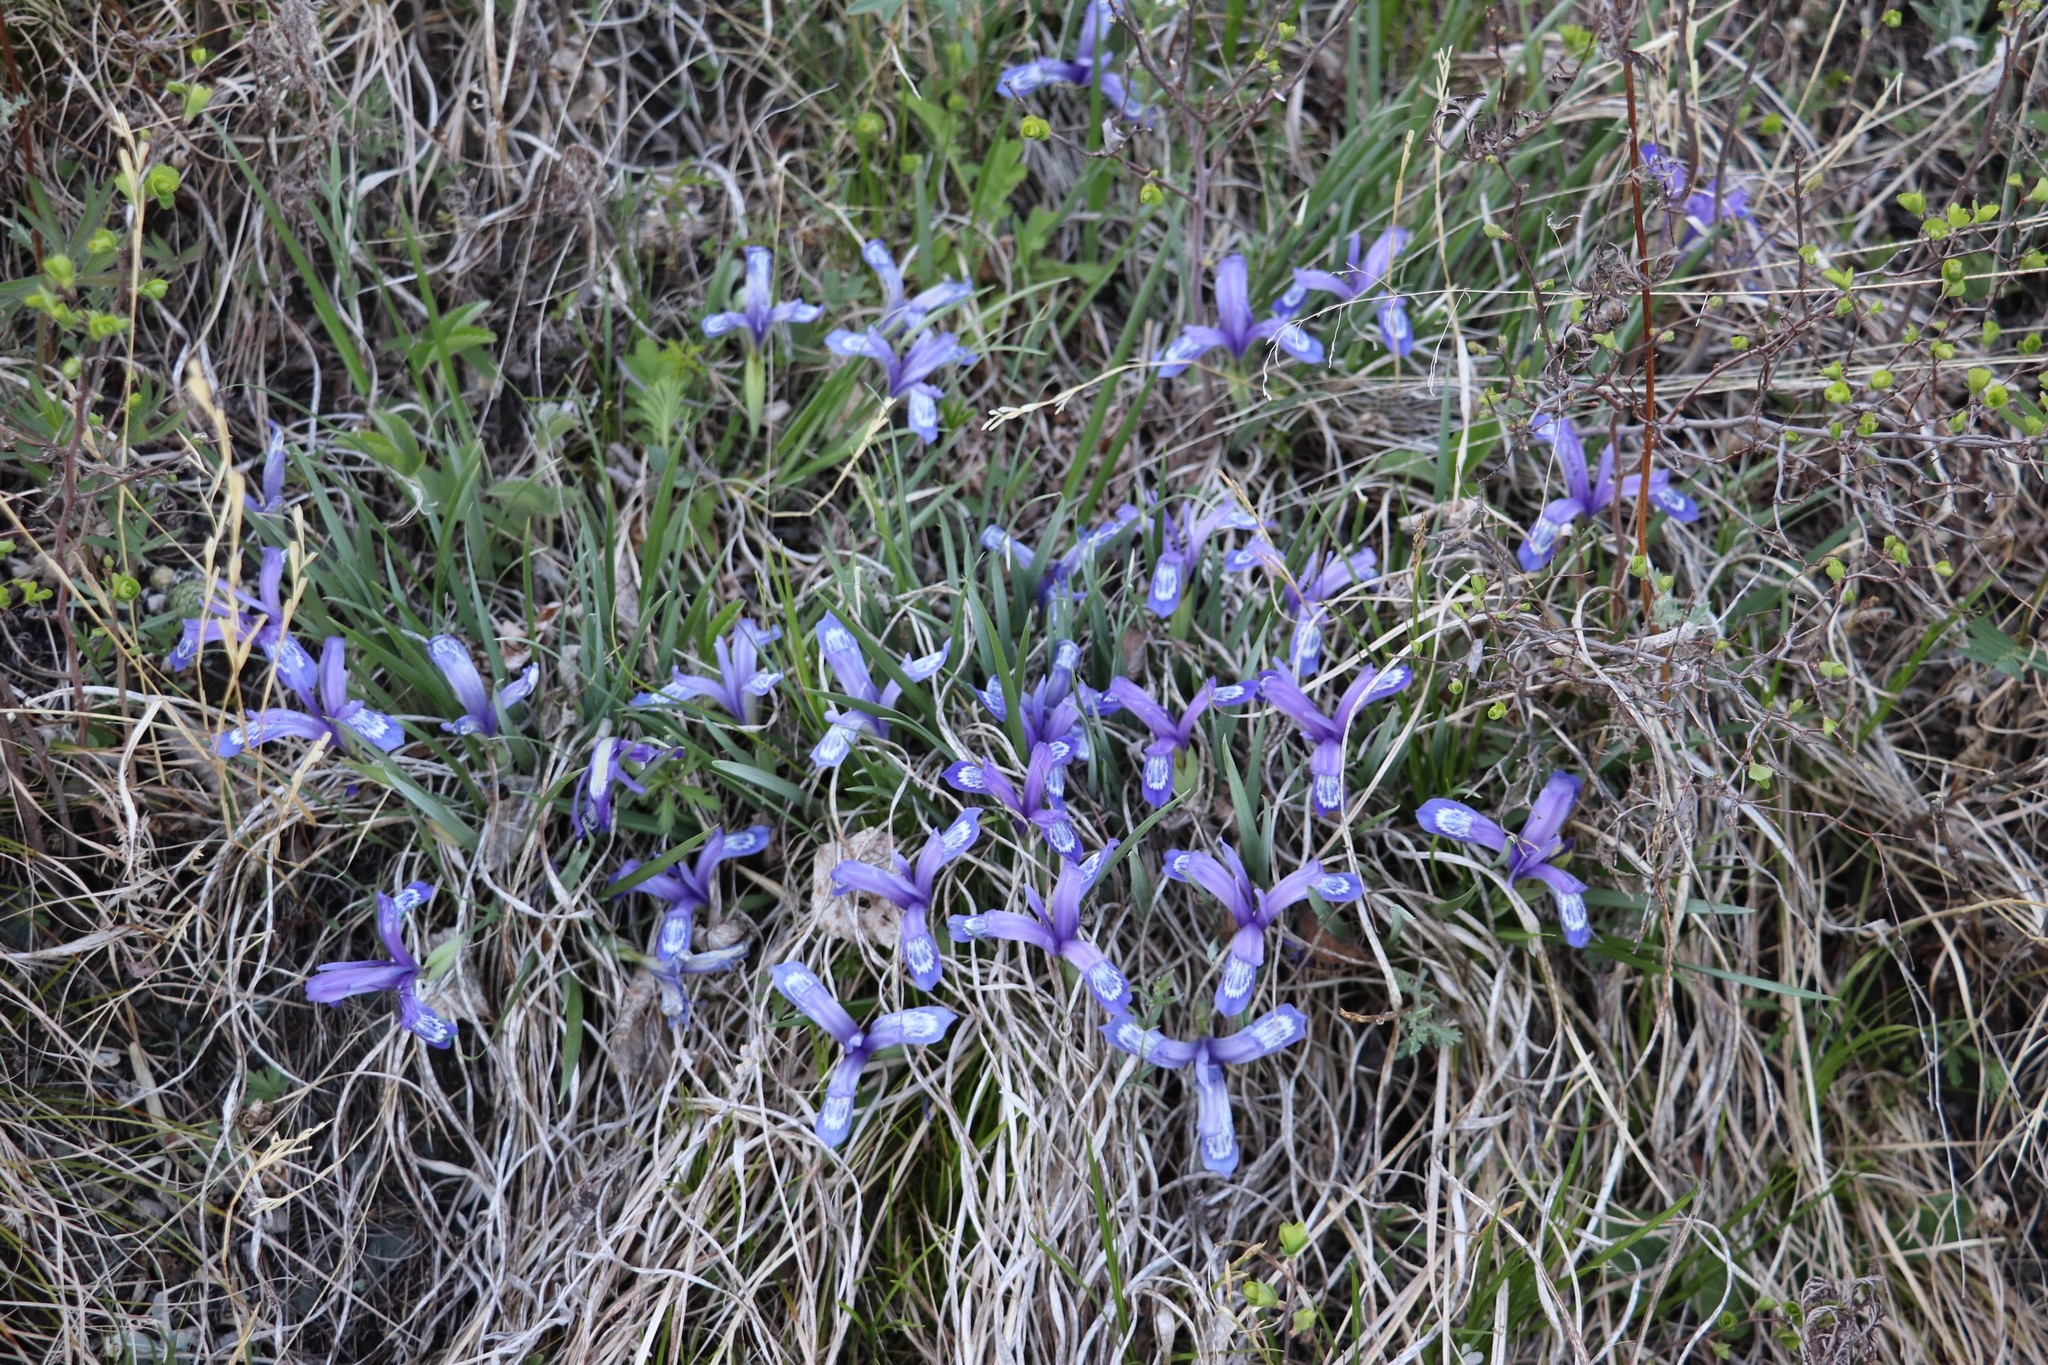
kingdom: Plantae
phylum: Tracheophyta
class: Liliopsida
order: Asparagales
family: Iridaceae
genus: Iris
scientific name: Iris ruthenica
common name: Purple-bract iris
